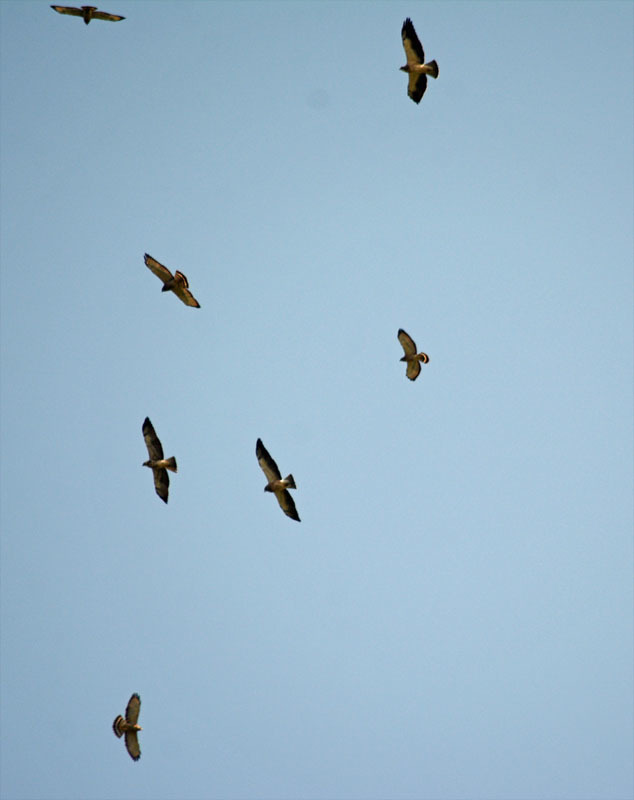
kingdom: Animalia
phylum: Chordata
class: Aves
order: Accipitriformes
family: Accipitridae
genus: Buteo
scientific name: Buteo swainsoni
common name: Swainson's hawk
